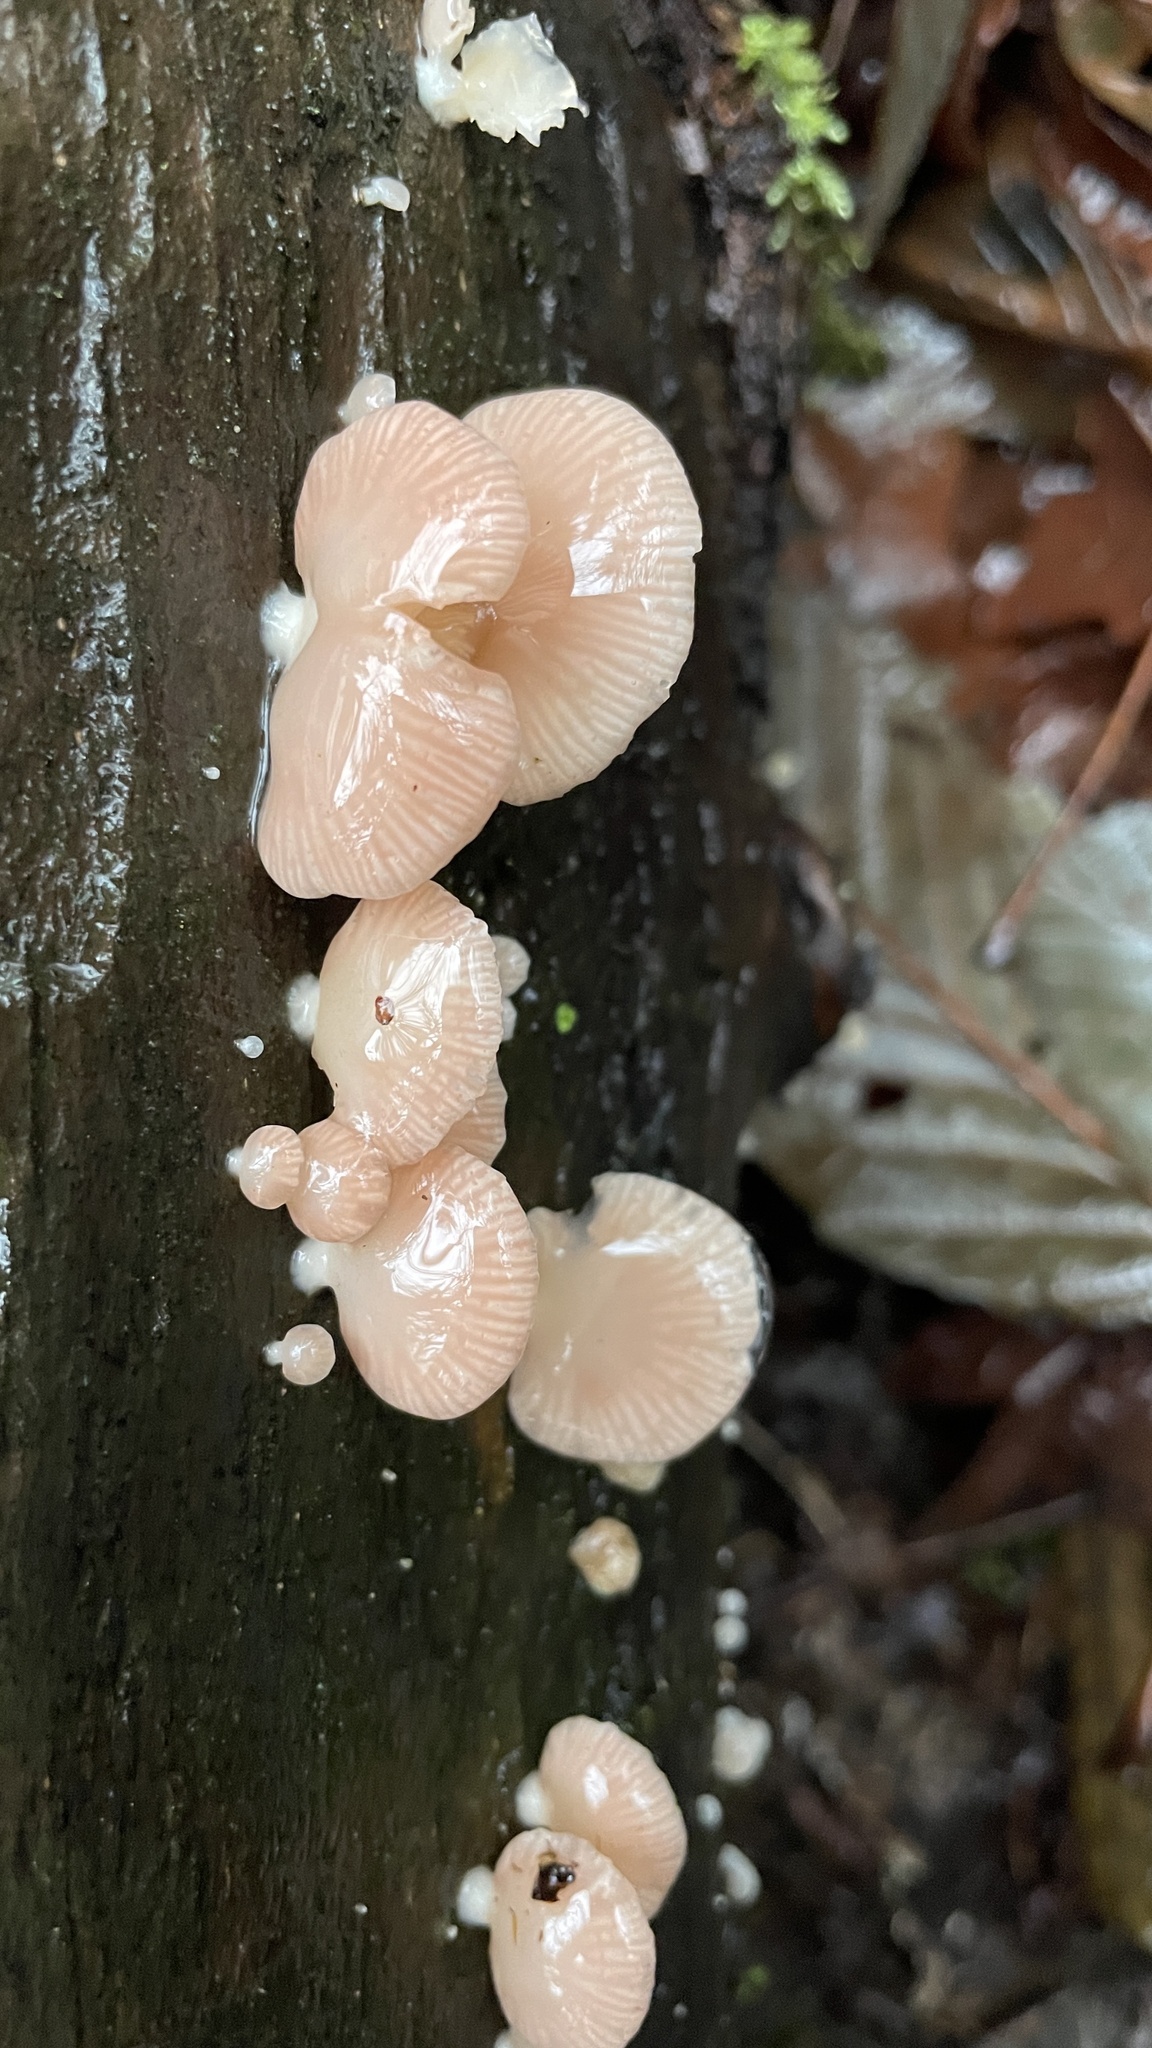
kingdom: Fungi
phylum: Basidiomycota
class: Agaricomycetes
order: Agaricales
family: Mycenaceae
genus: Panellus
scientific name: Panellus longinquus
